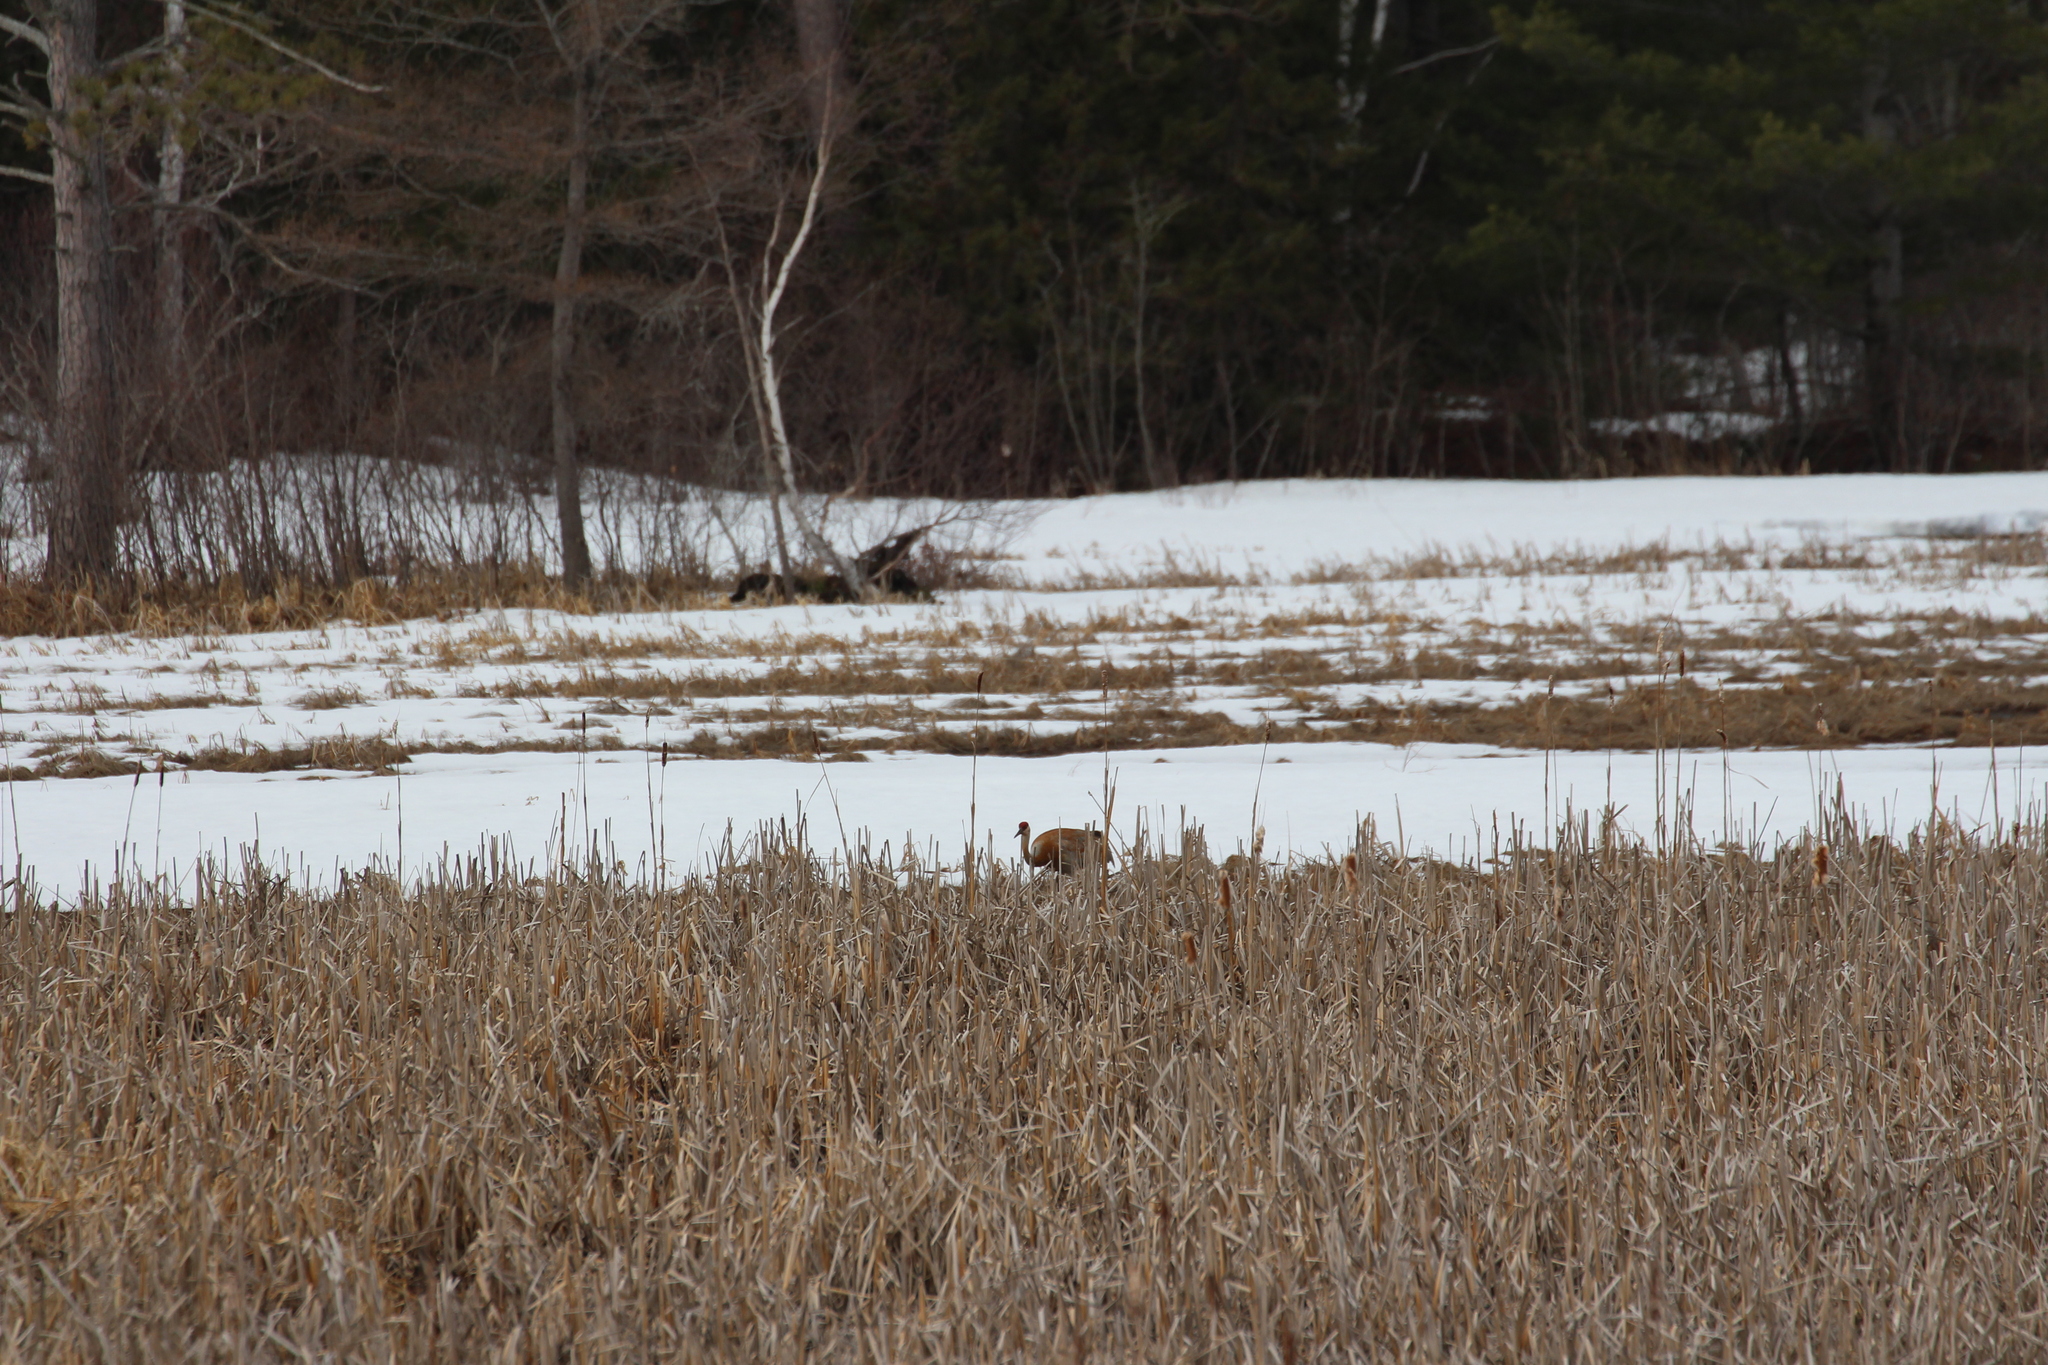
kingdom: Animalia
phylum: Chordata
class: Aves
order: Gruiformes
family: Gruidae
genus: Grus
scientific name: Grus canadensis
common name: Sandhill crane
